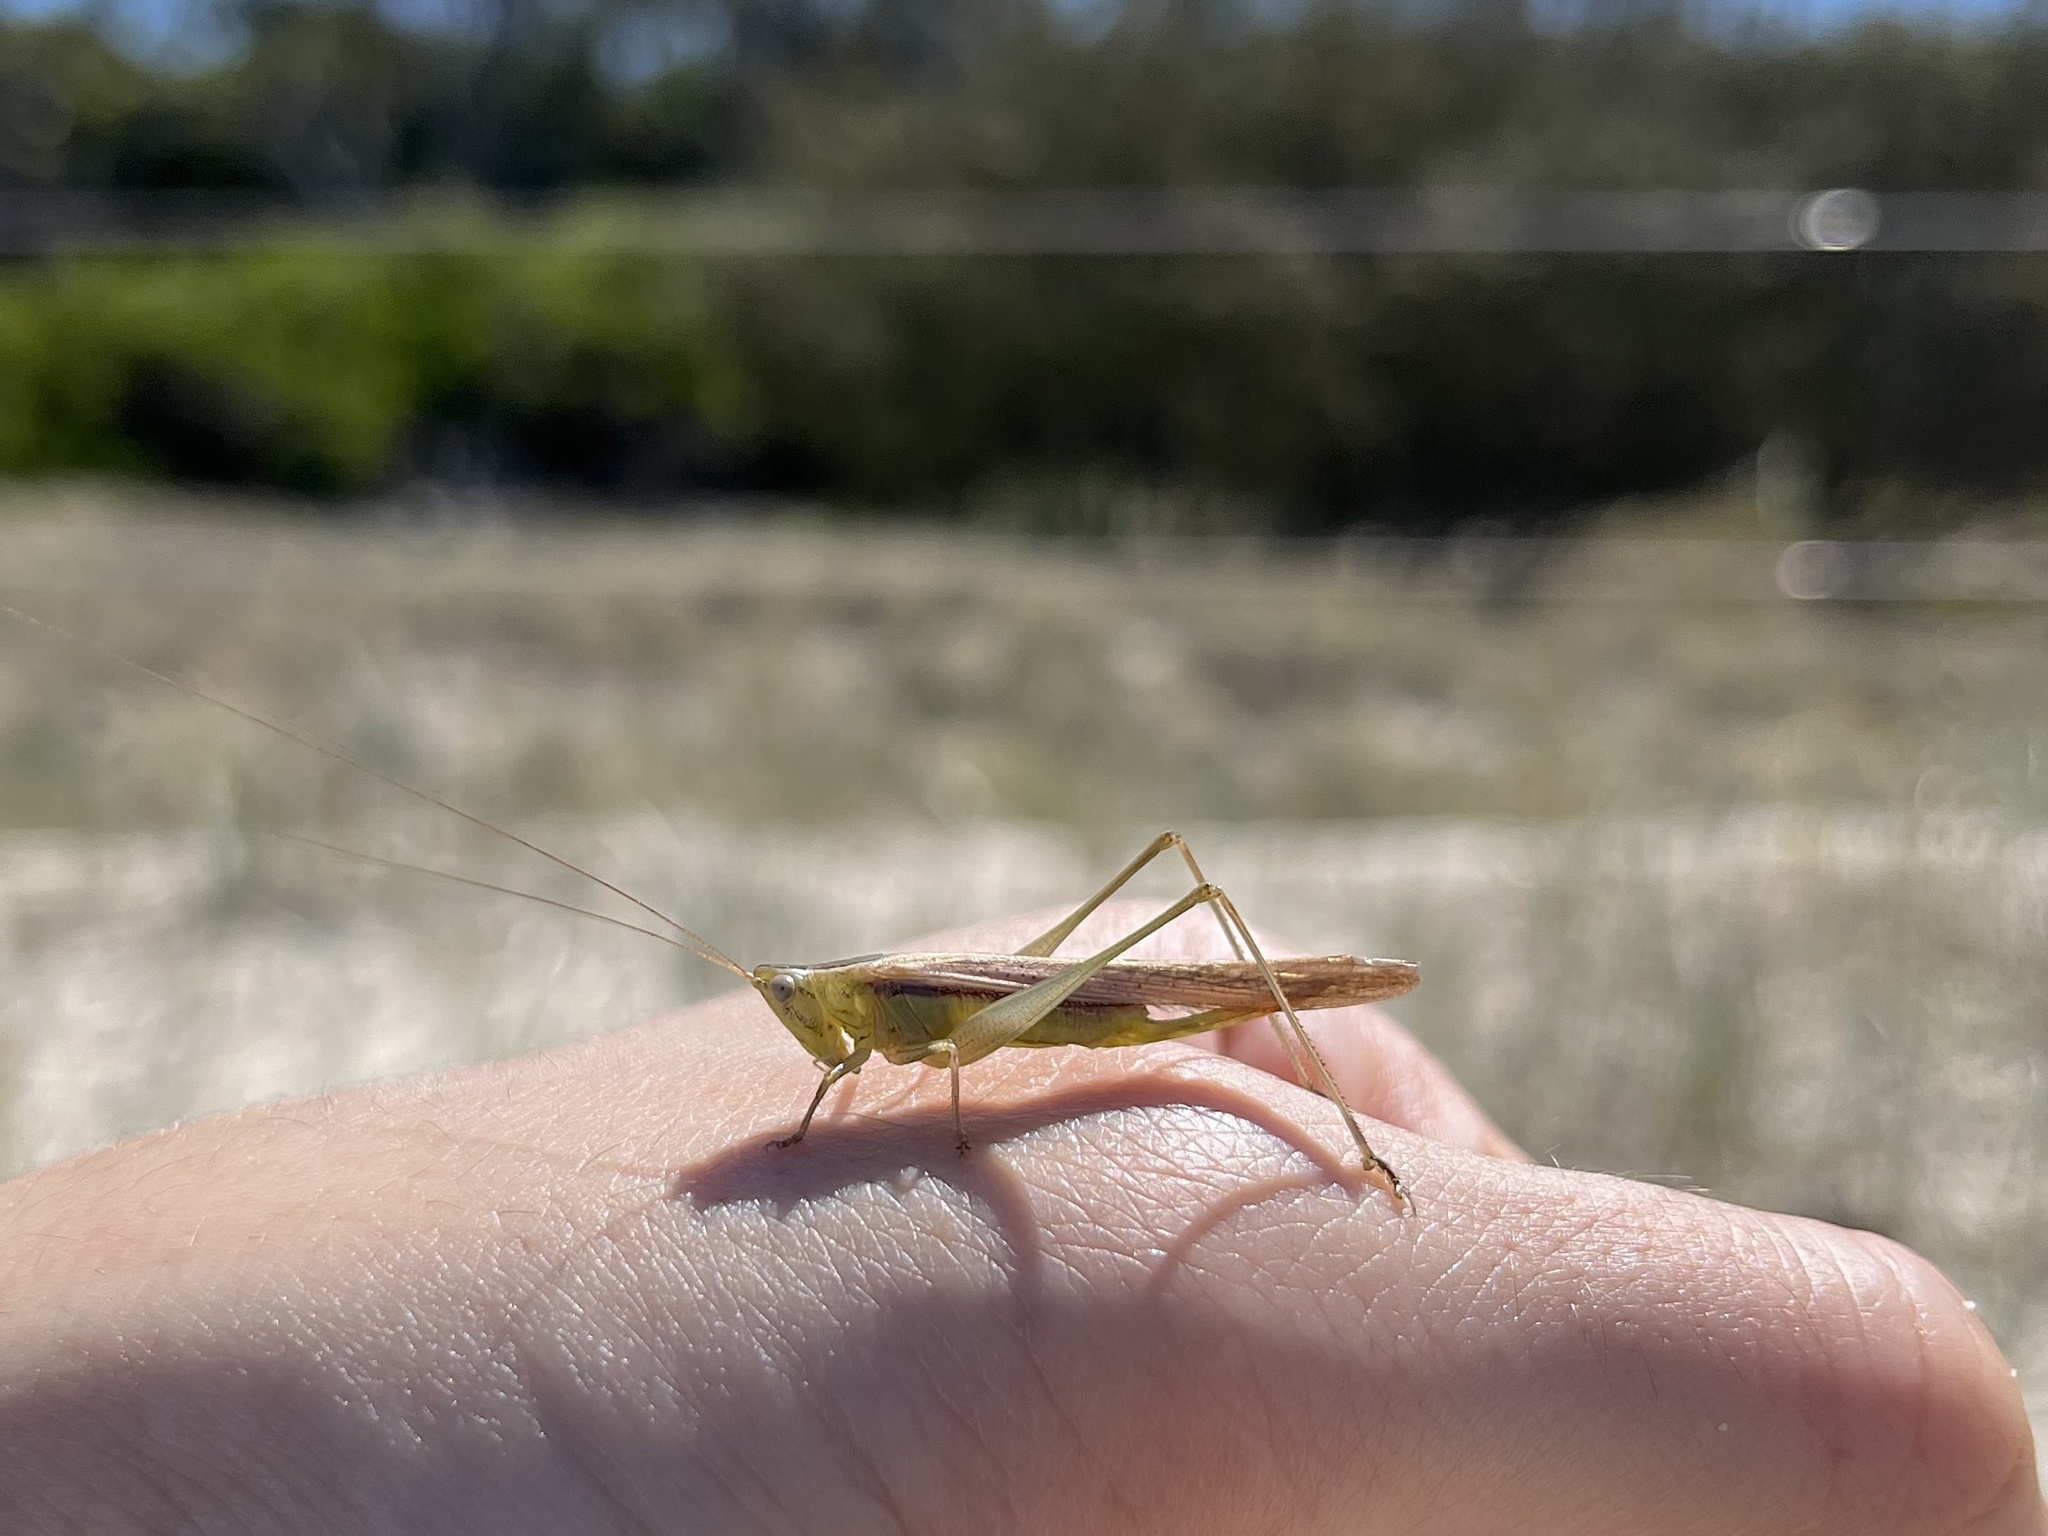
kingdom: Animalia
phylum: Arthropoda
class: Insecta
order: Orthoptera
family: Tettigoniidae
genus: Conocephalus
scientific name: Conocephalus upoluensis
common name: Upolu meadow katydid
